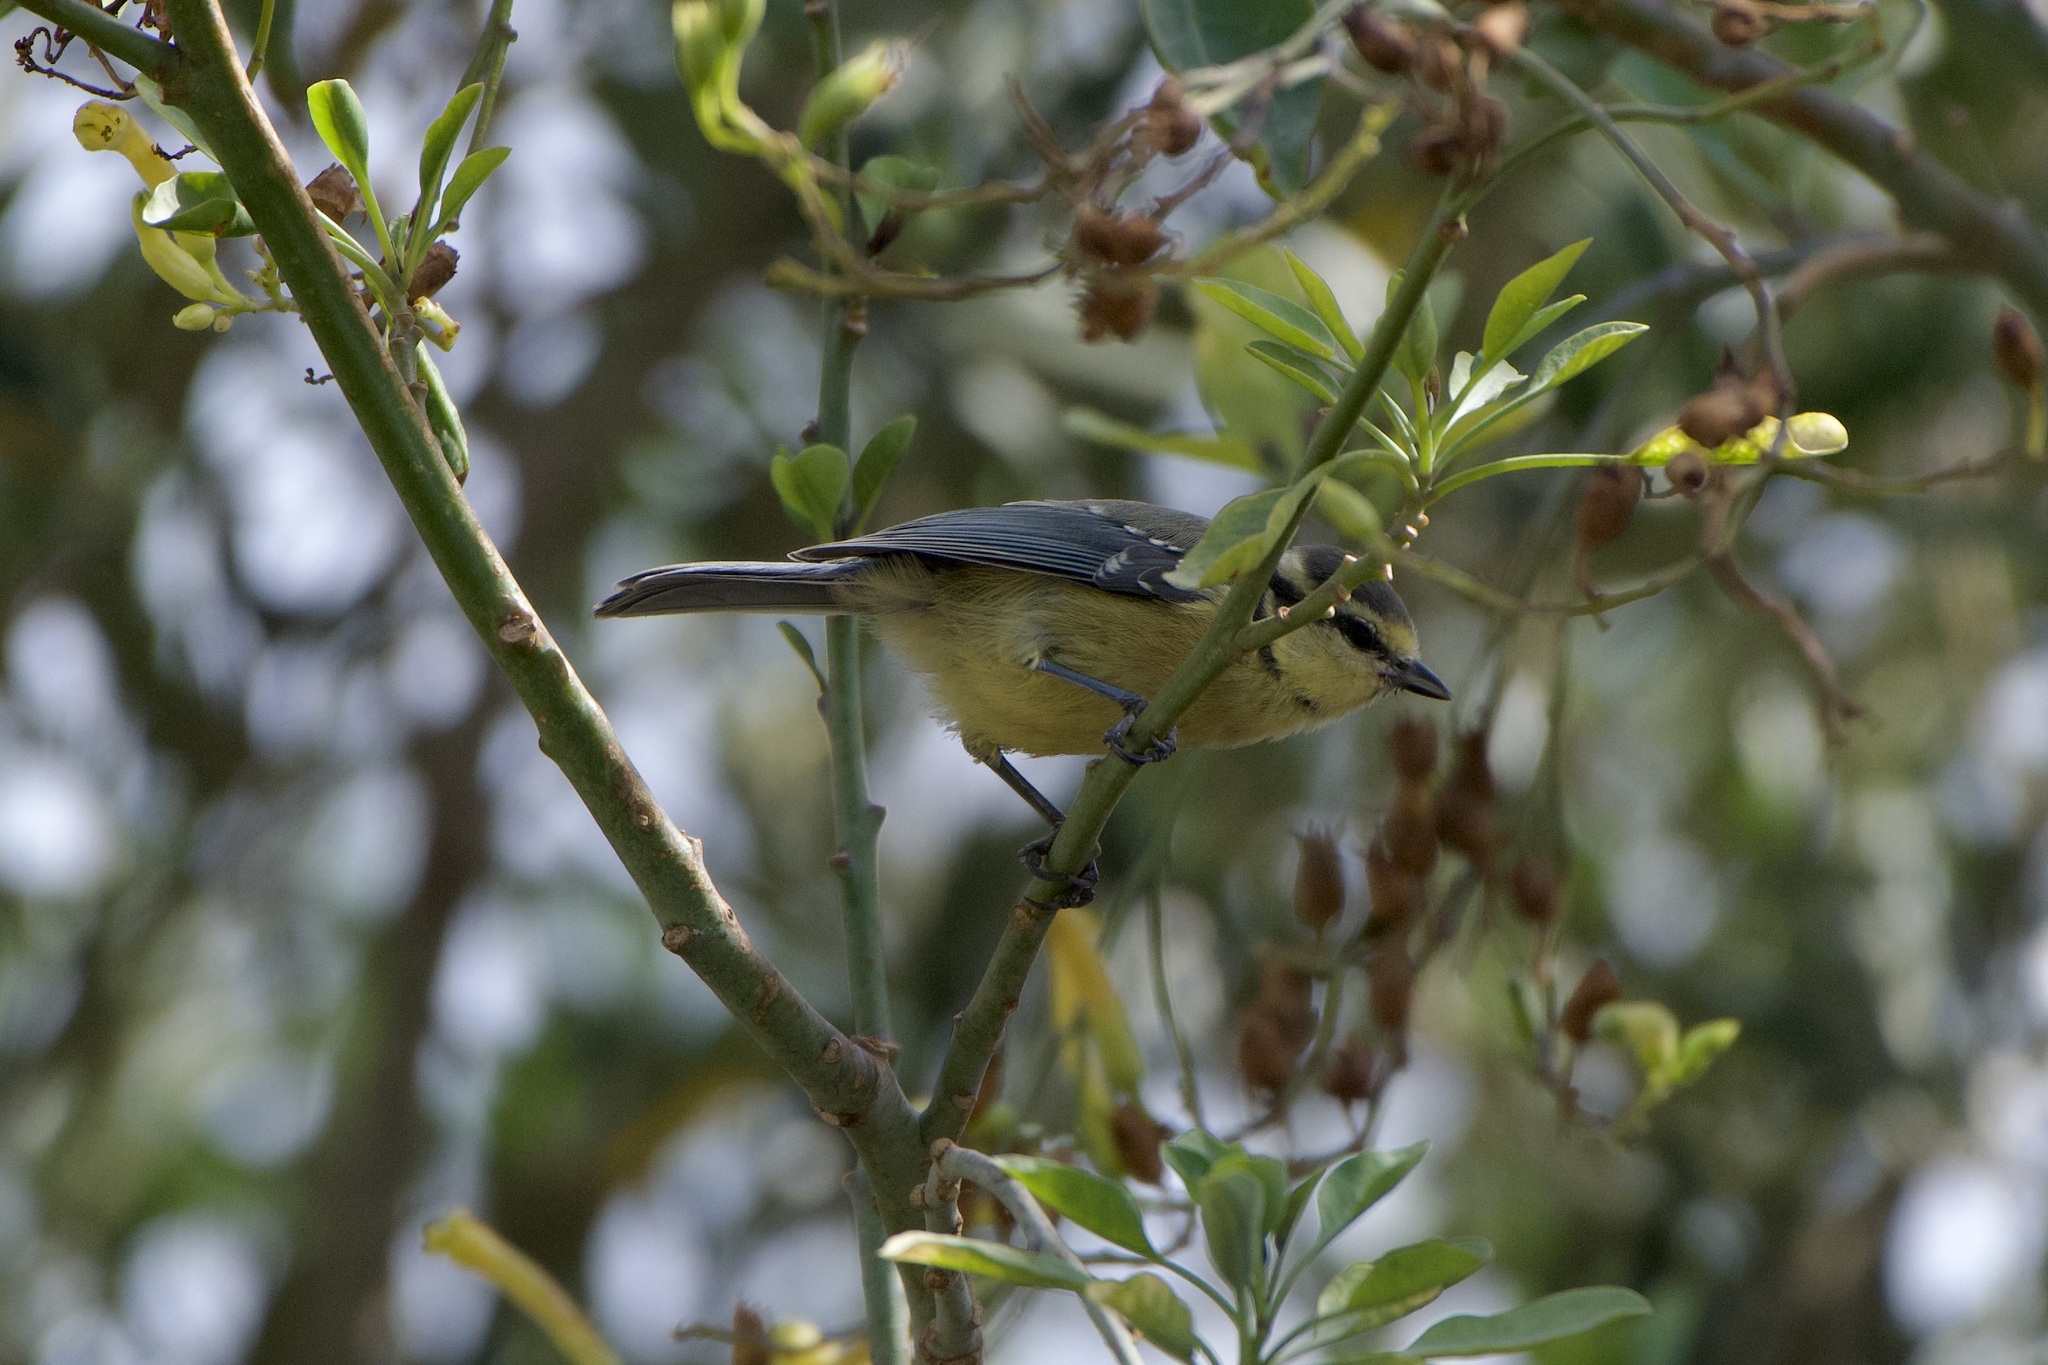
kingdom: Animalia
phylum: Chordata
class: Aves
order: Passeriformes
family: Paridae
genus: Cyanistes
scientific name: Cyanistes teneriffae
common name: African blue tit
